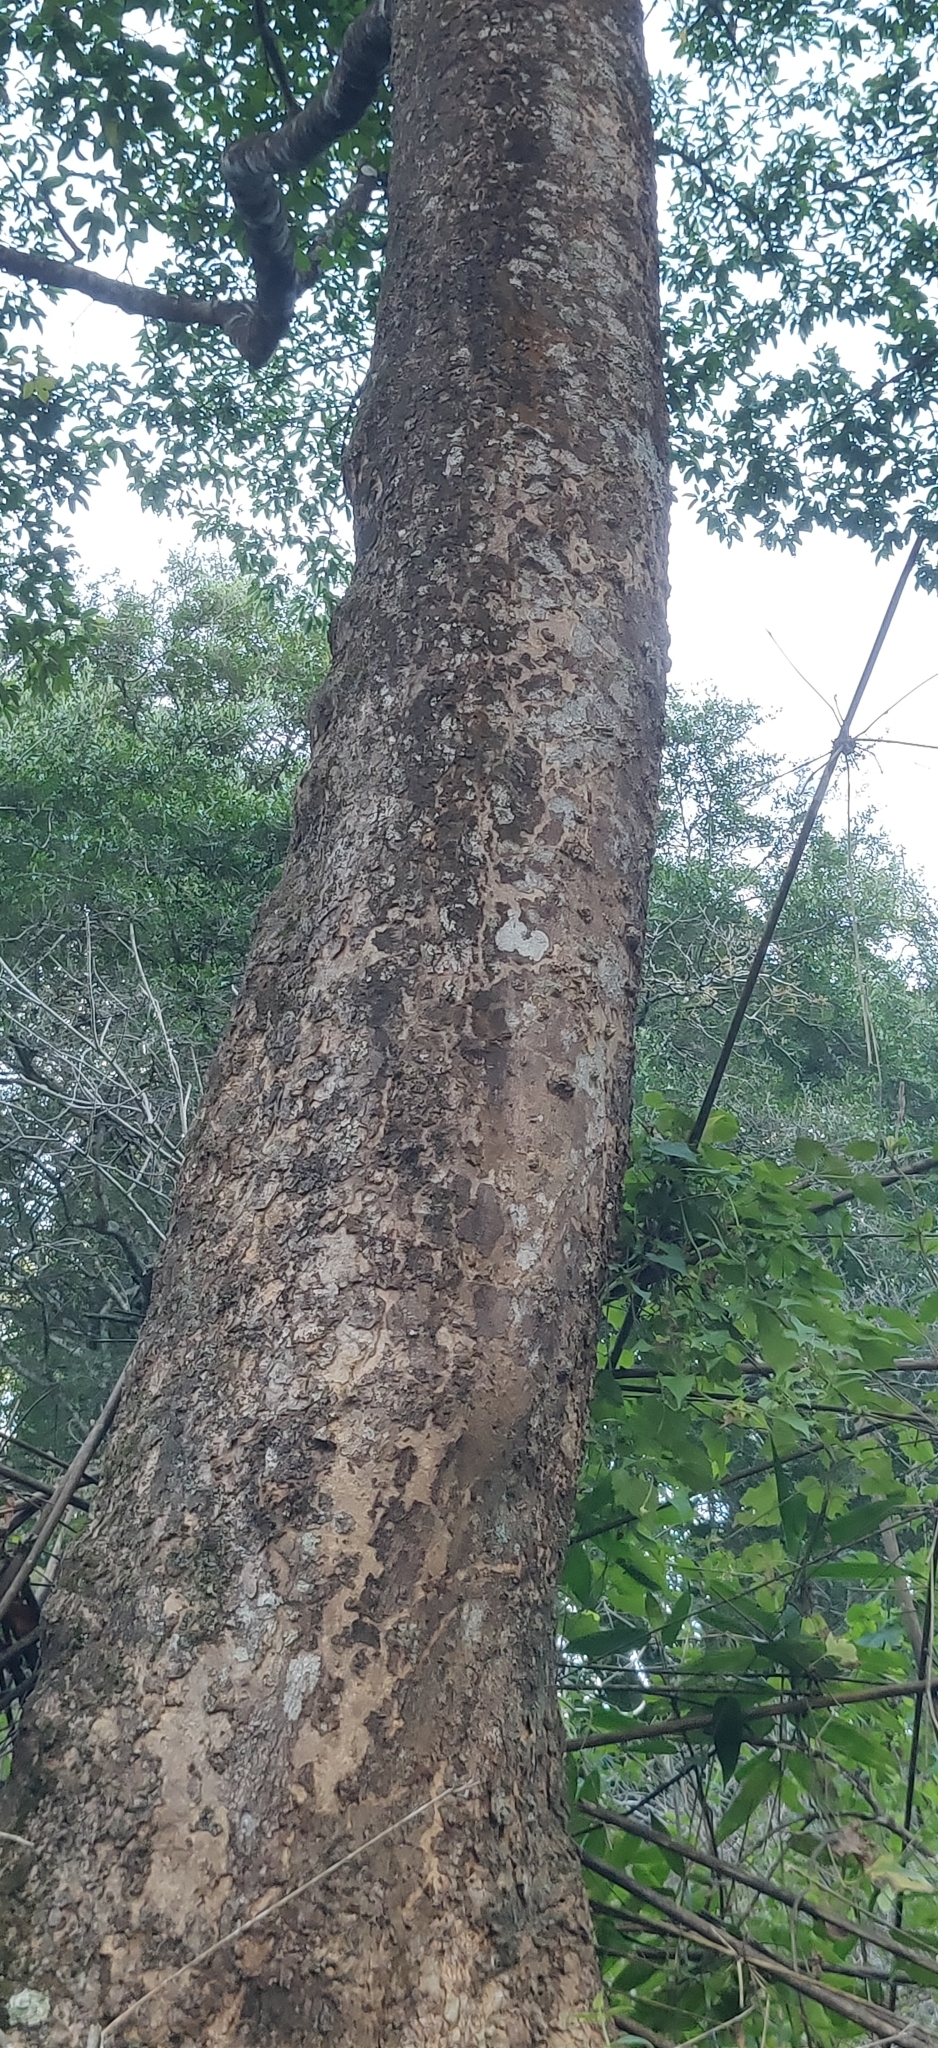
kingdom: Plantae
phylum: Tracheophyta
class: Magnoliopsida
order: Sapindales
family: Rutaceae
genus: Melicope
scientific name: Melicope lunu-ankenda
